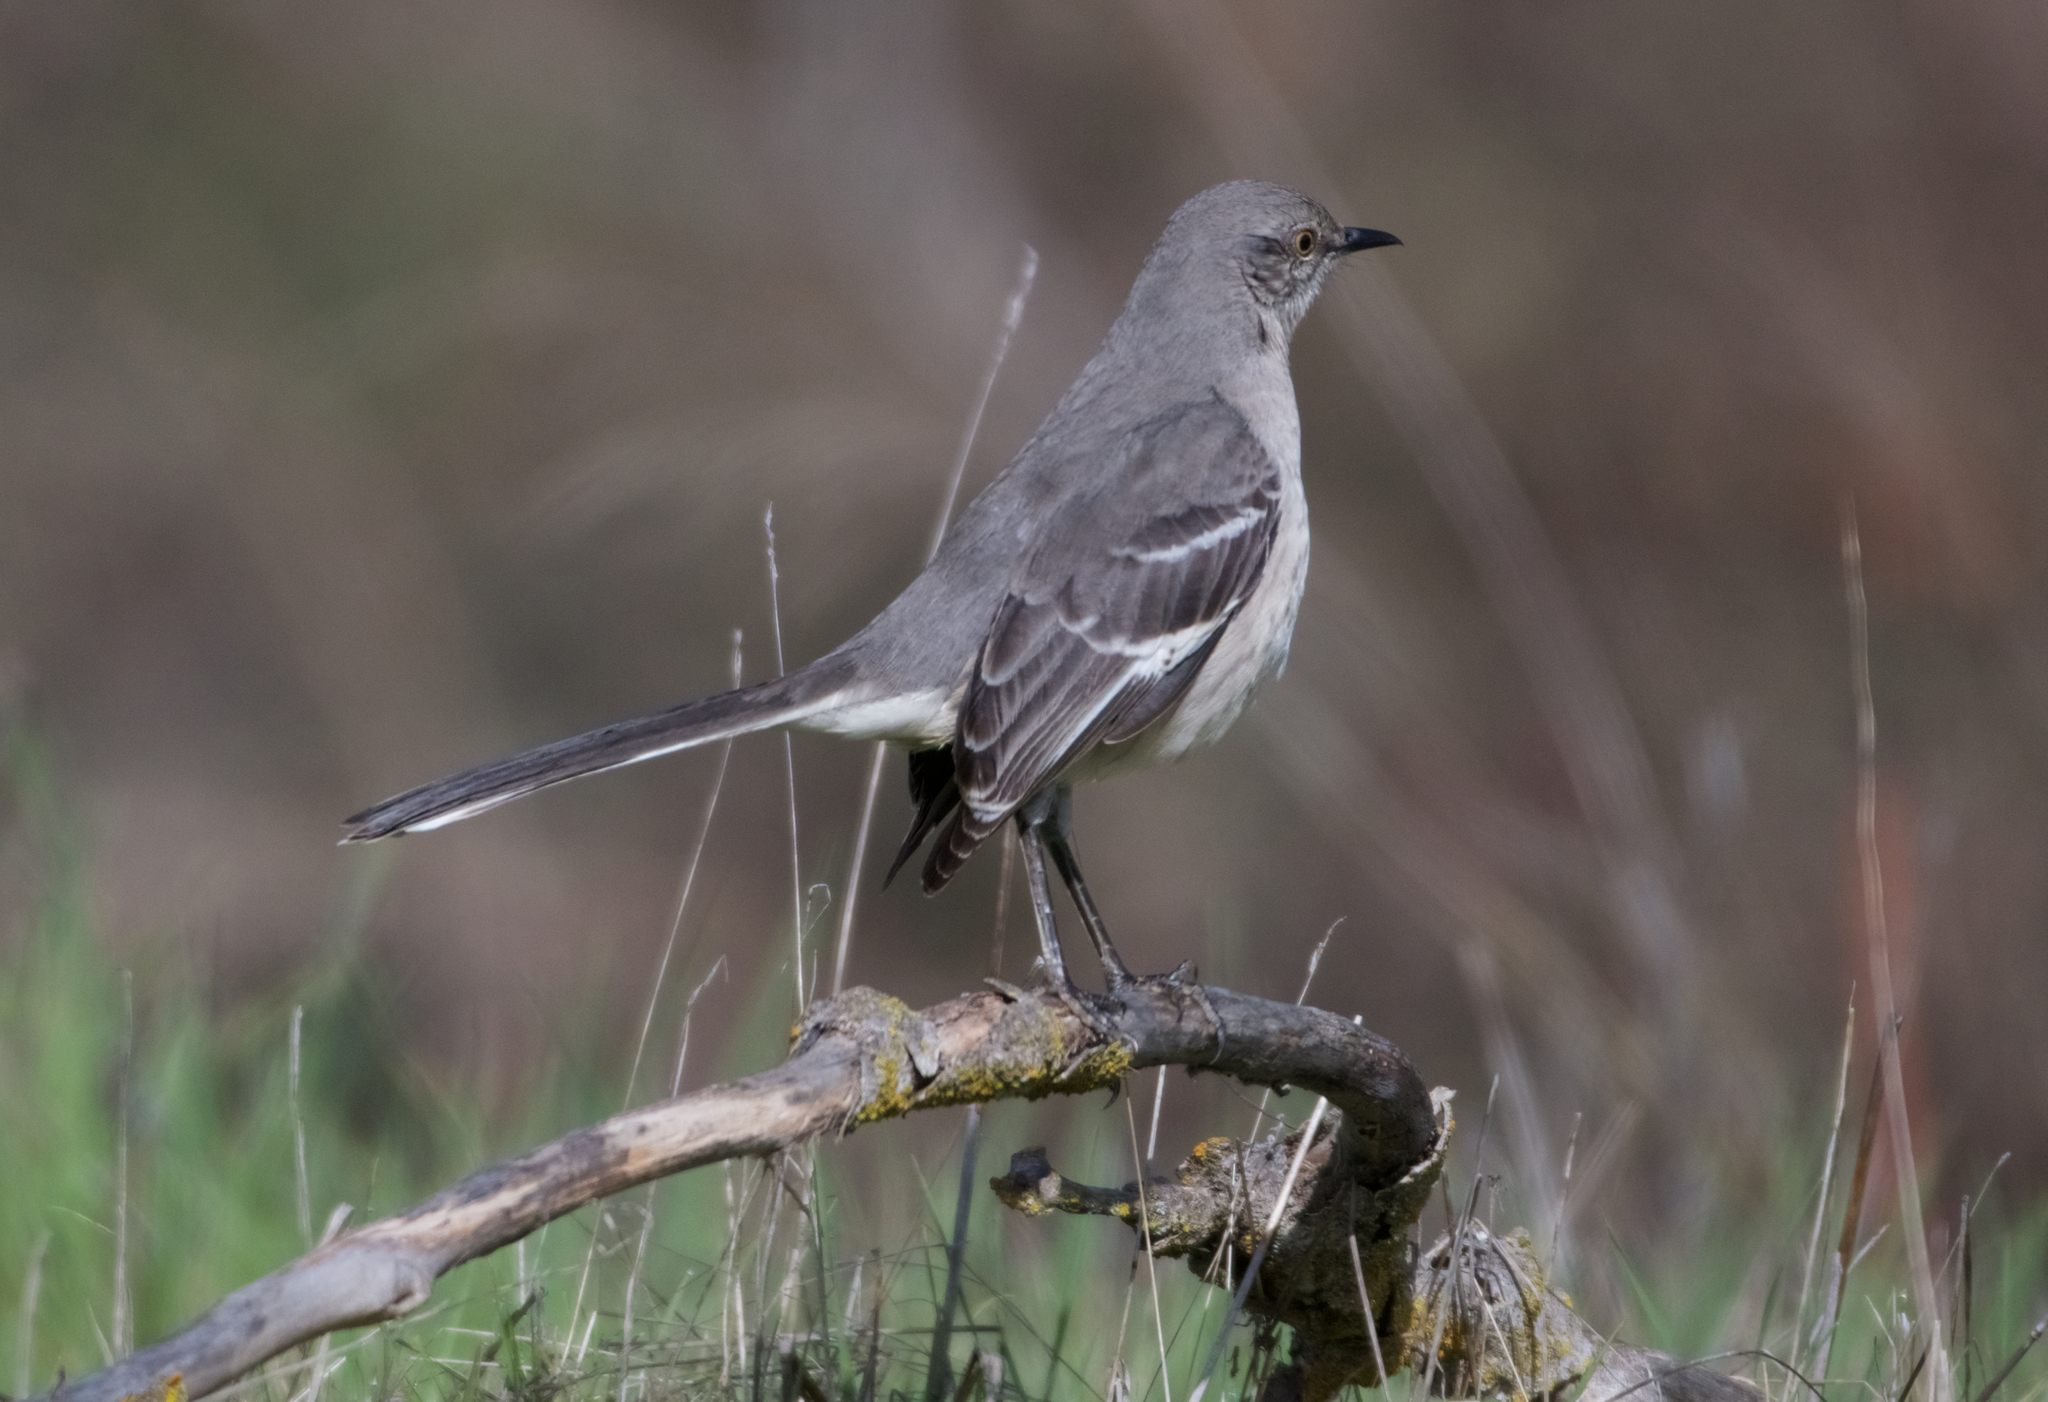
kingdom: Animalia
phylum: Chordata
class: Aves
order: Passeriformes
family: Mimidae
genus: Mimus
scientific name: Mimus polyglottos
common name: Northern mockingbird
